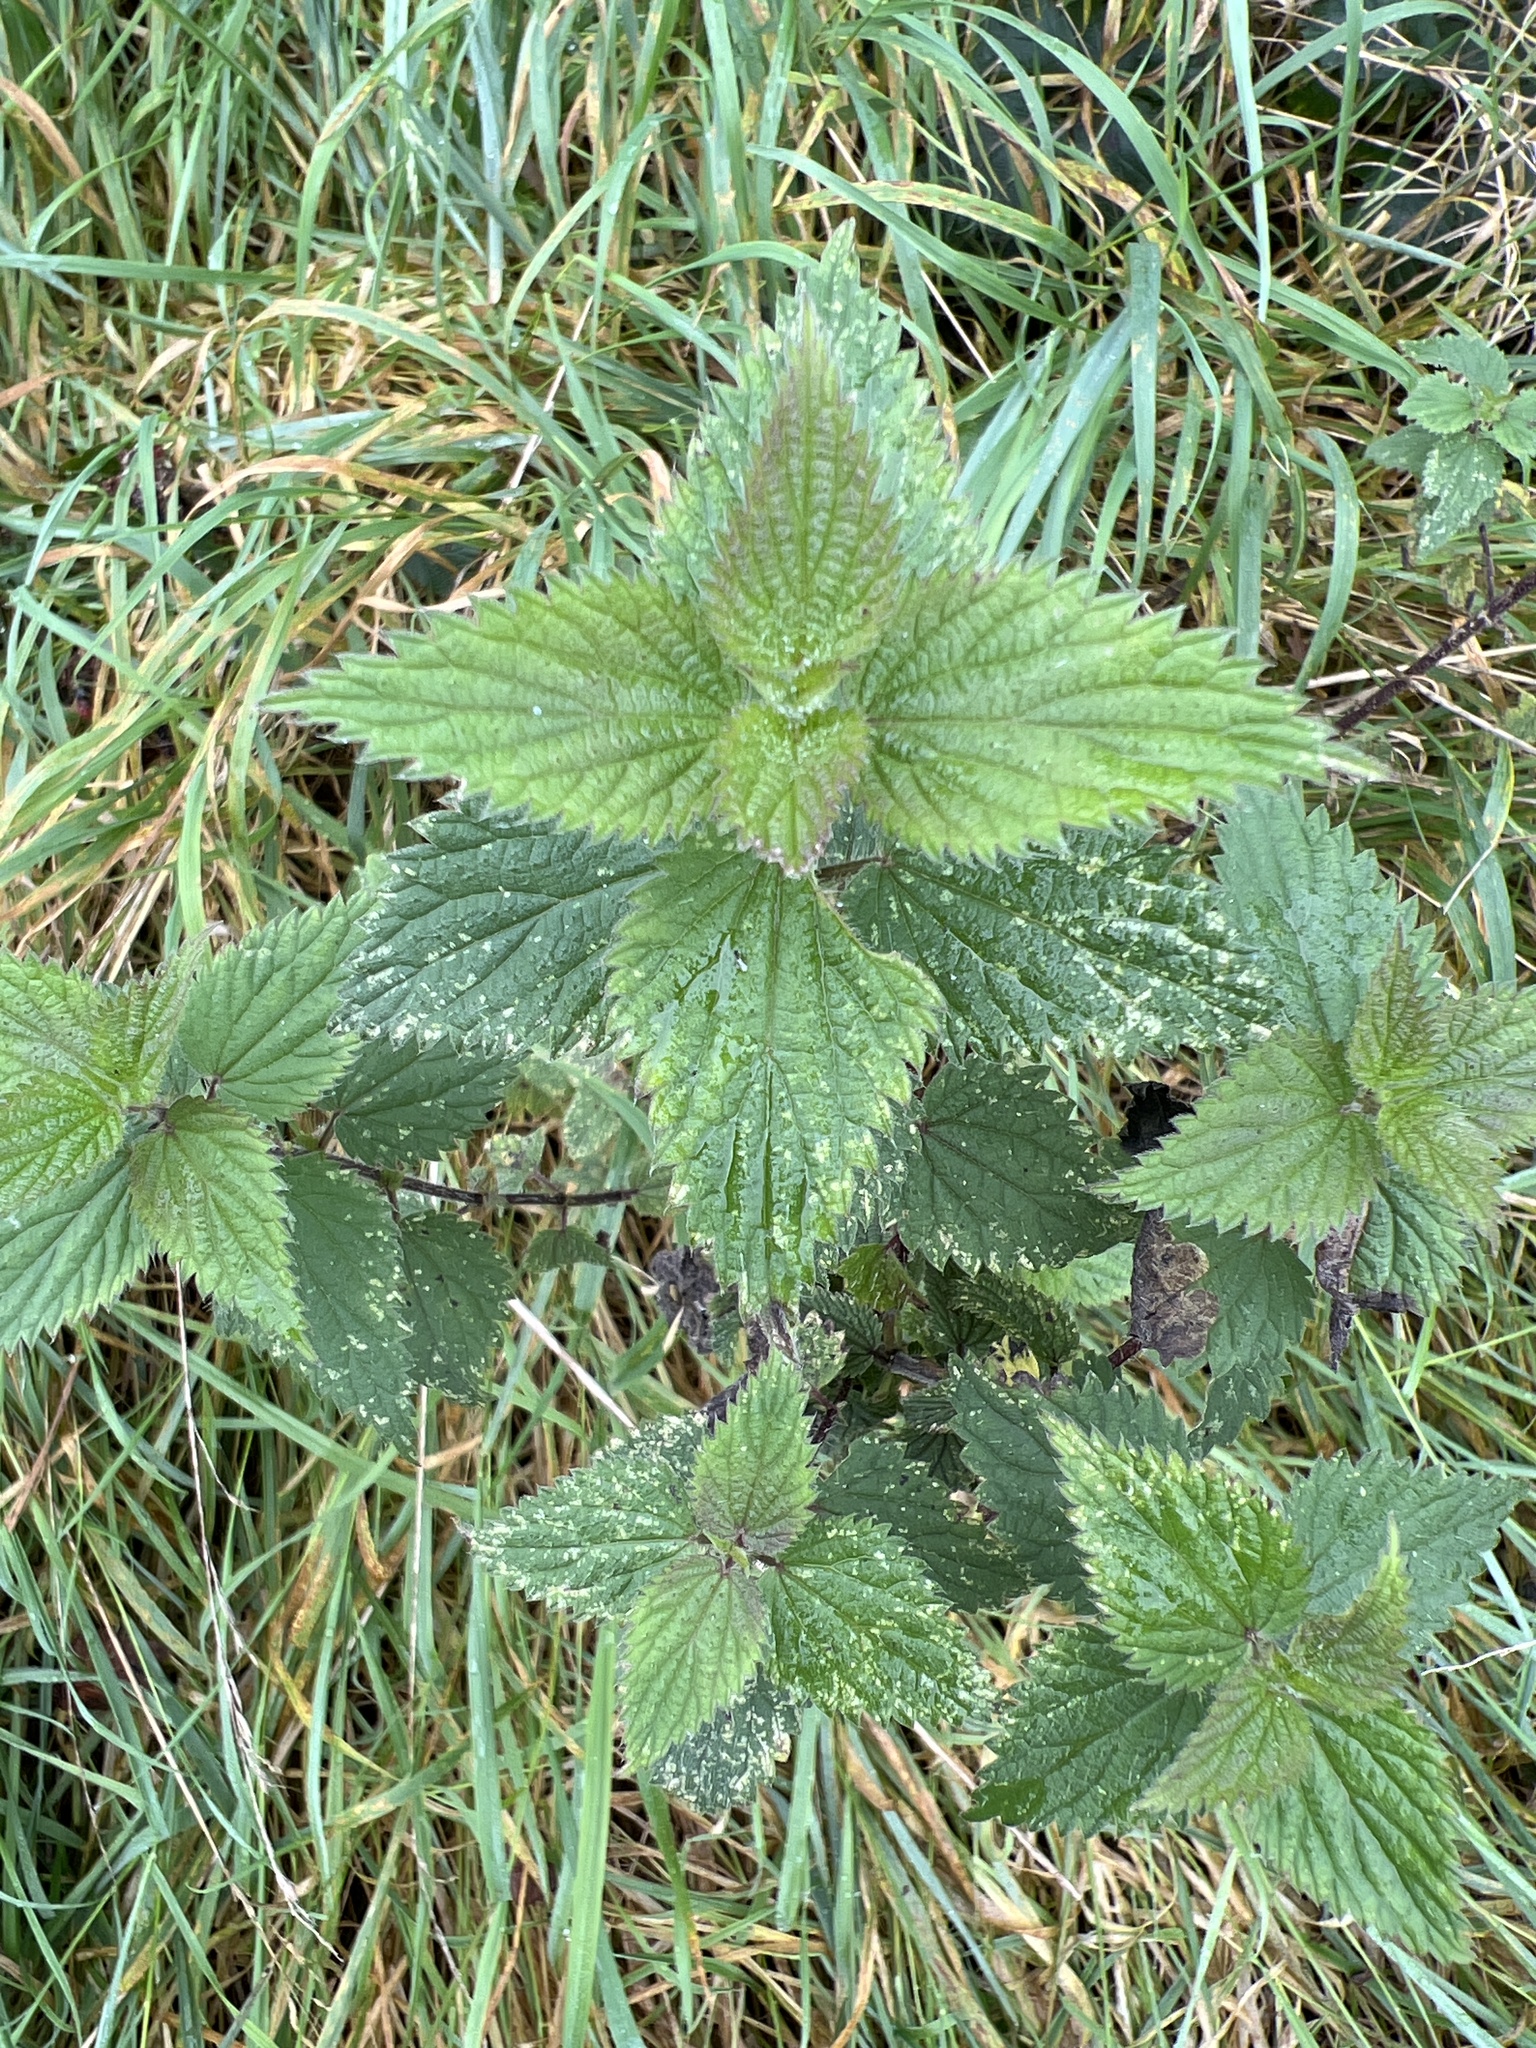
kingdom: Plantae
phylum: Tracheophyta
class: Magnoliopsida
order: Rosales
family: Urticaceae
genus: Urtica
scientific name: Urtica dioica
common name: Common nettle
